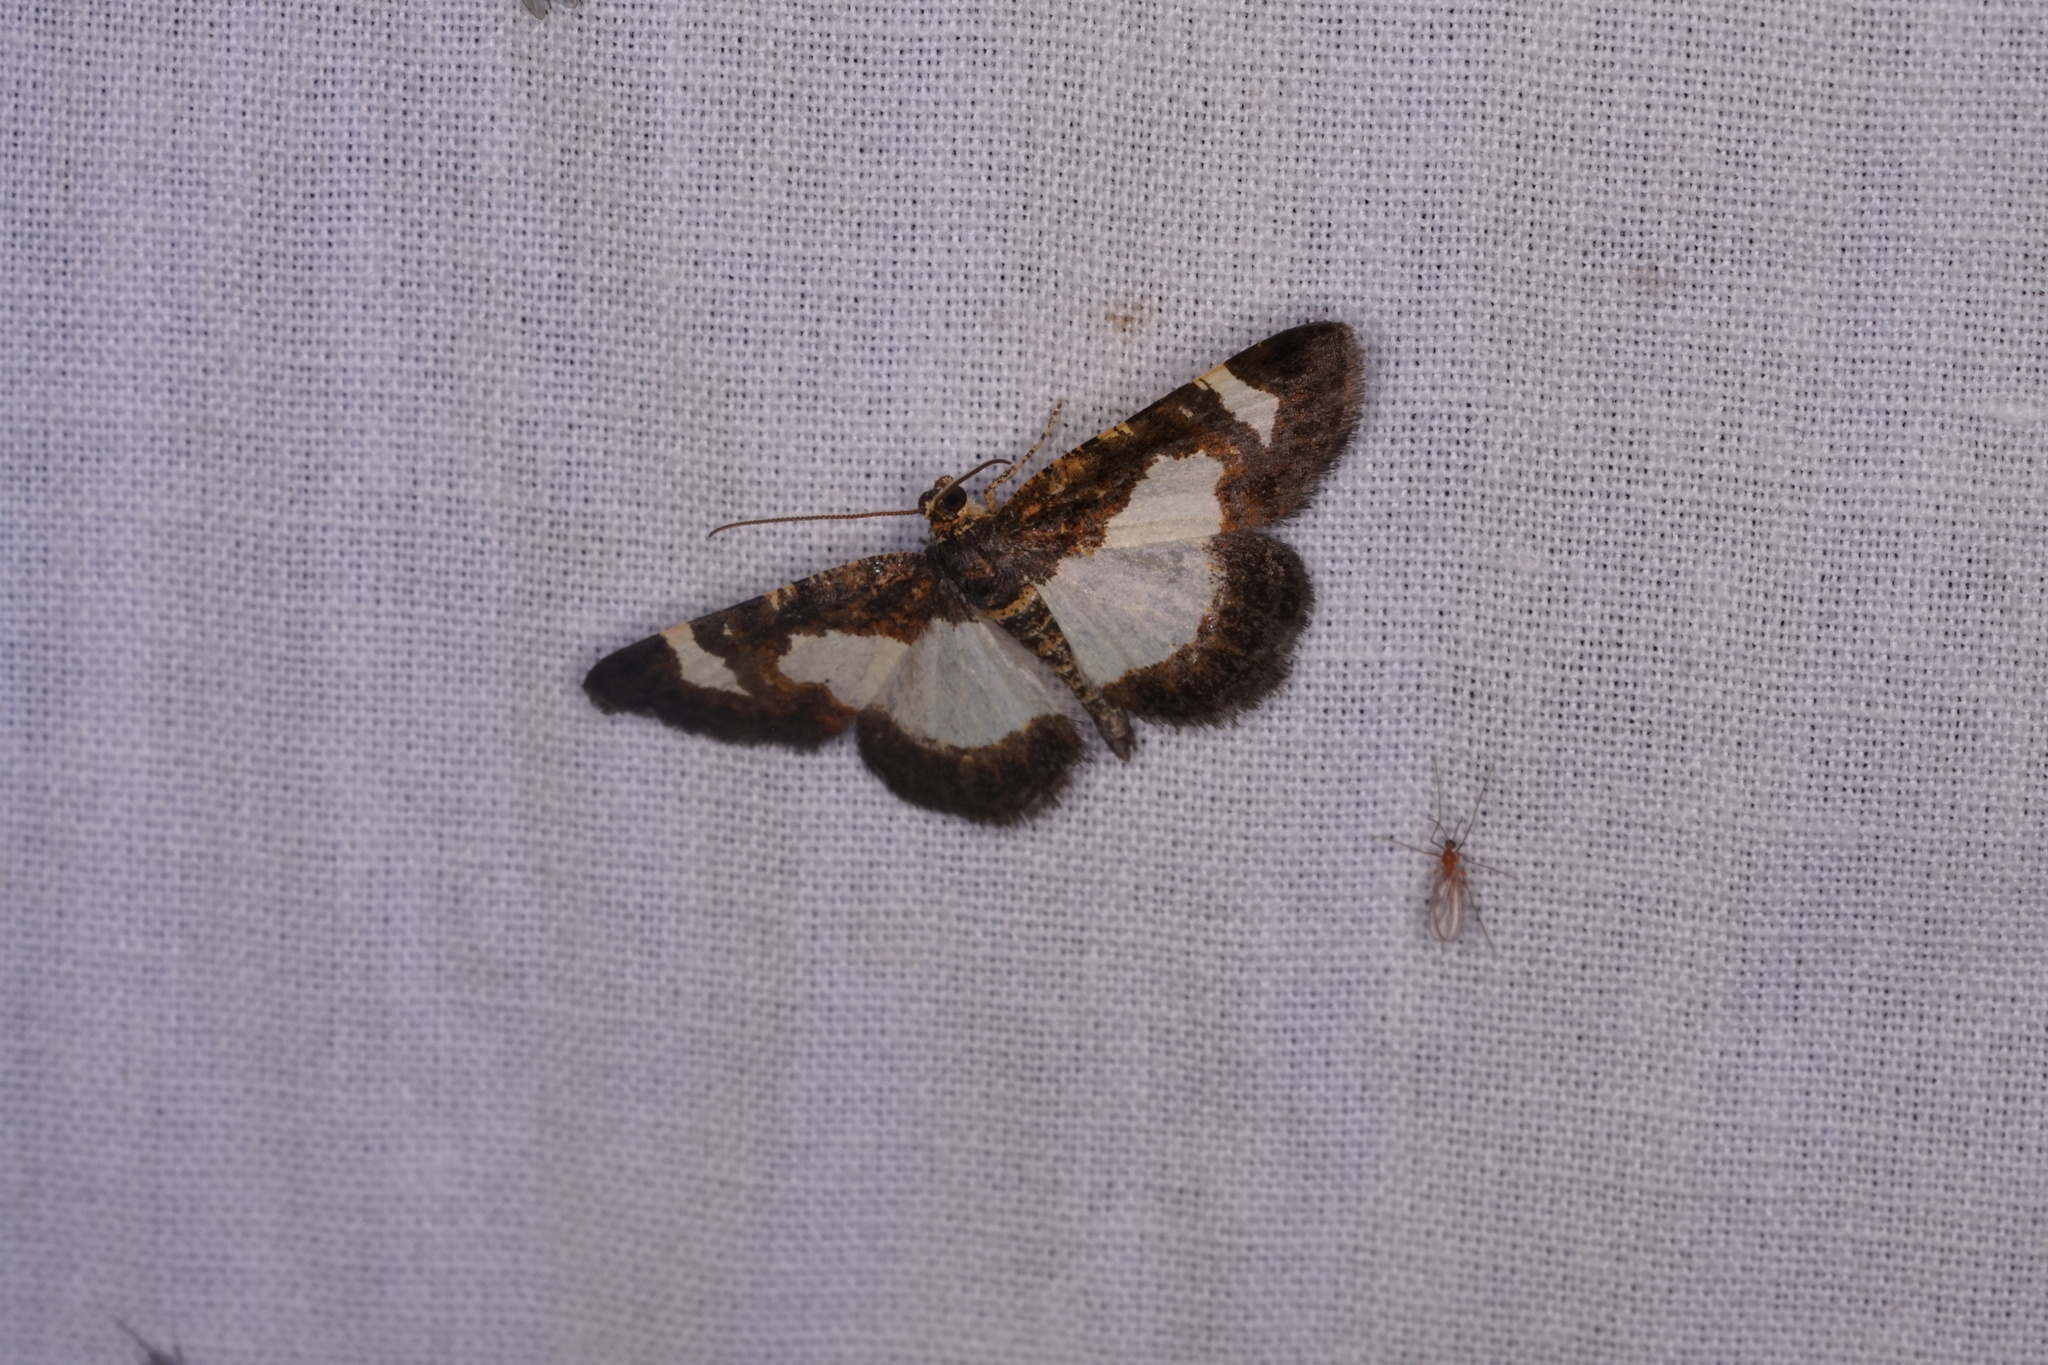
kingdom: Animalia
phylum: Arthropoda
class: Insecta
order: Lepidoptera
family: Geometridae
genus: Heliomata
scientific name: Heliomata cycladata
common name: Common spring moth
